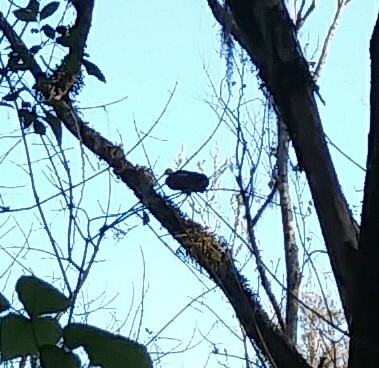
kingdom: Animalia
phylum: Chordata
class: Aves
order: Gruiformes
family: Aramidae
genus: Aramus
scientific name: Aramus guarauna
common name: Limpkin
